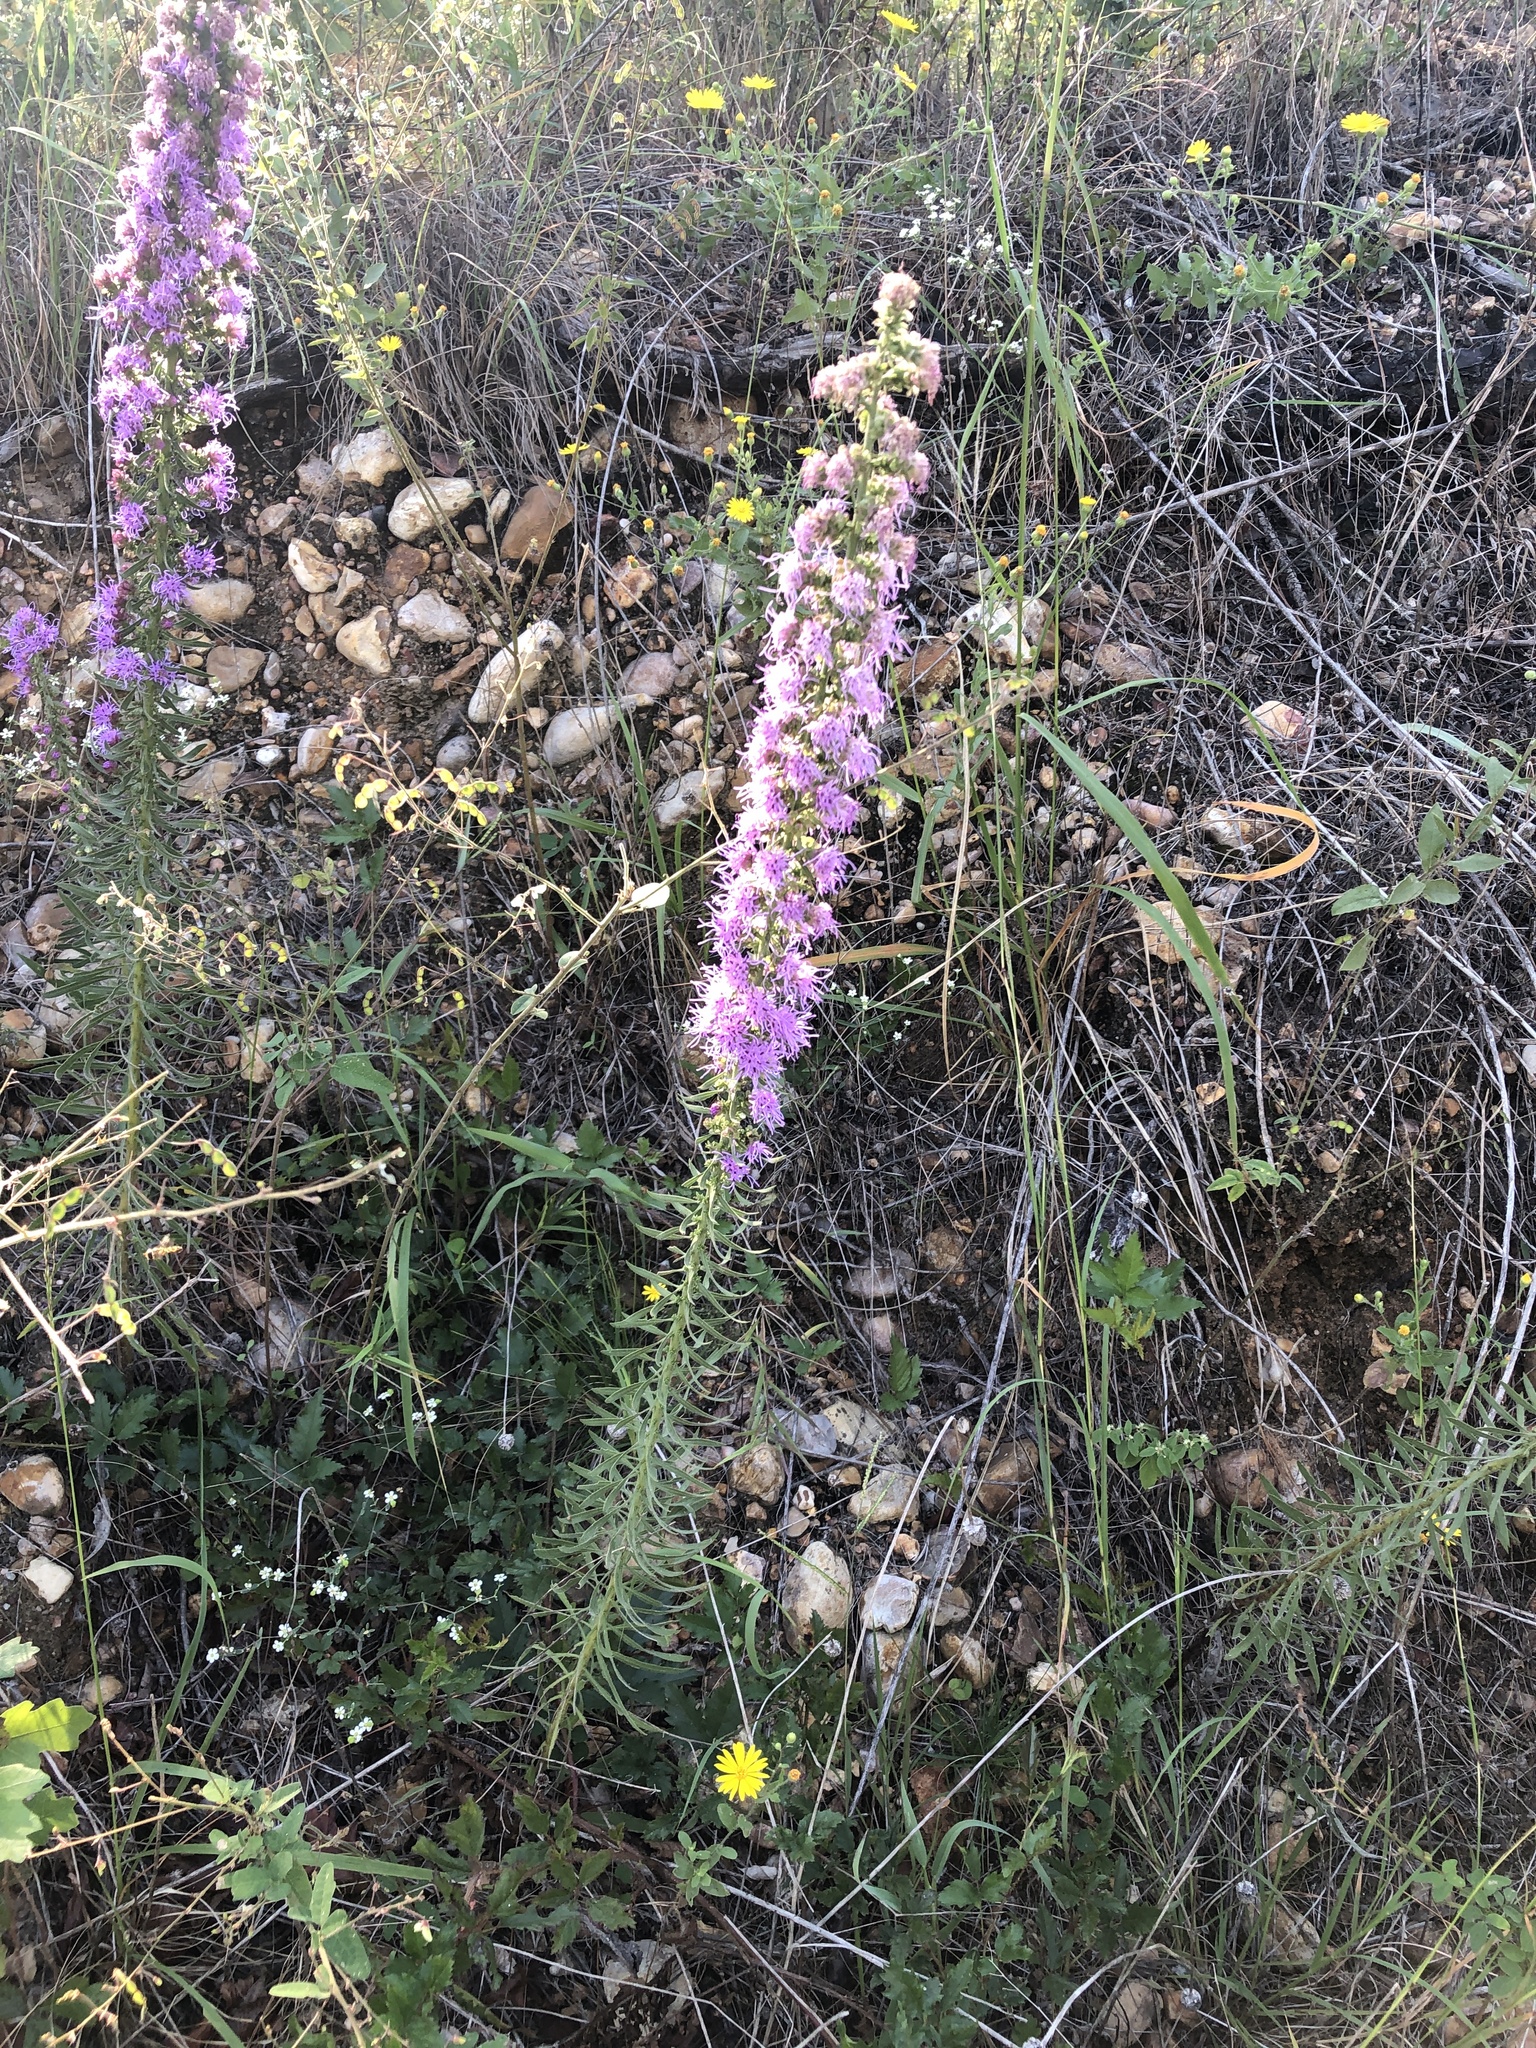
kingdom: Plantae
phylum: Tracheophyta
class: Magnoliopsida
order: Asterales
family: Asteraceae
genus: Liatris
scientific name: Liatris aspera
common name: Lacerate blazing-star
